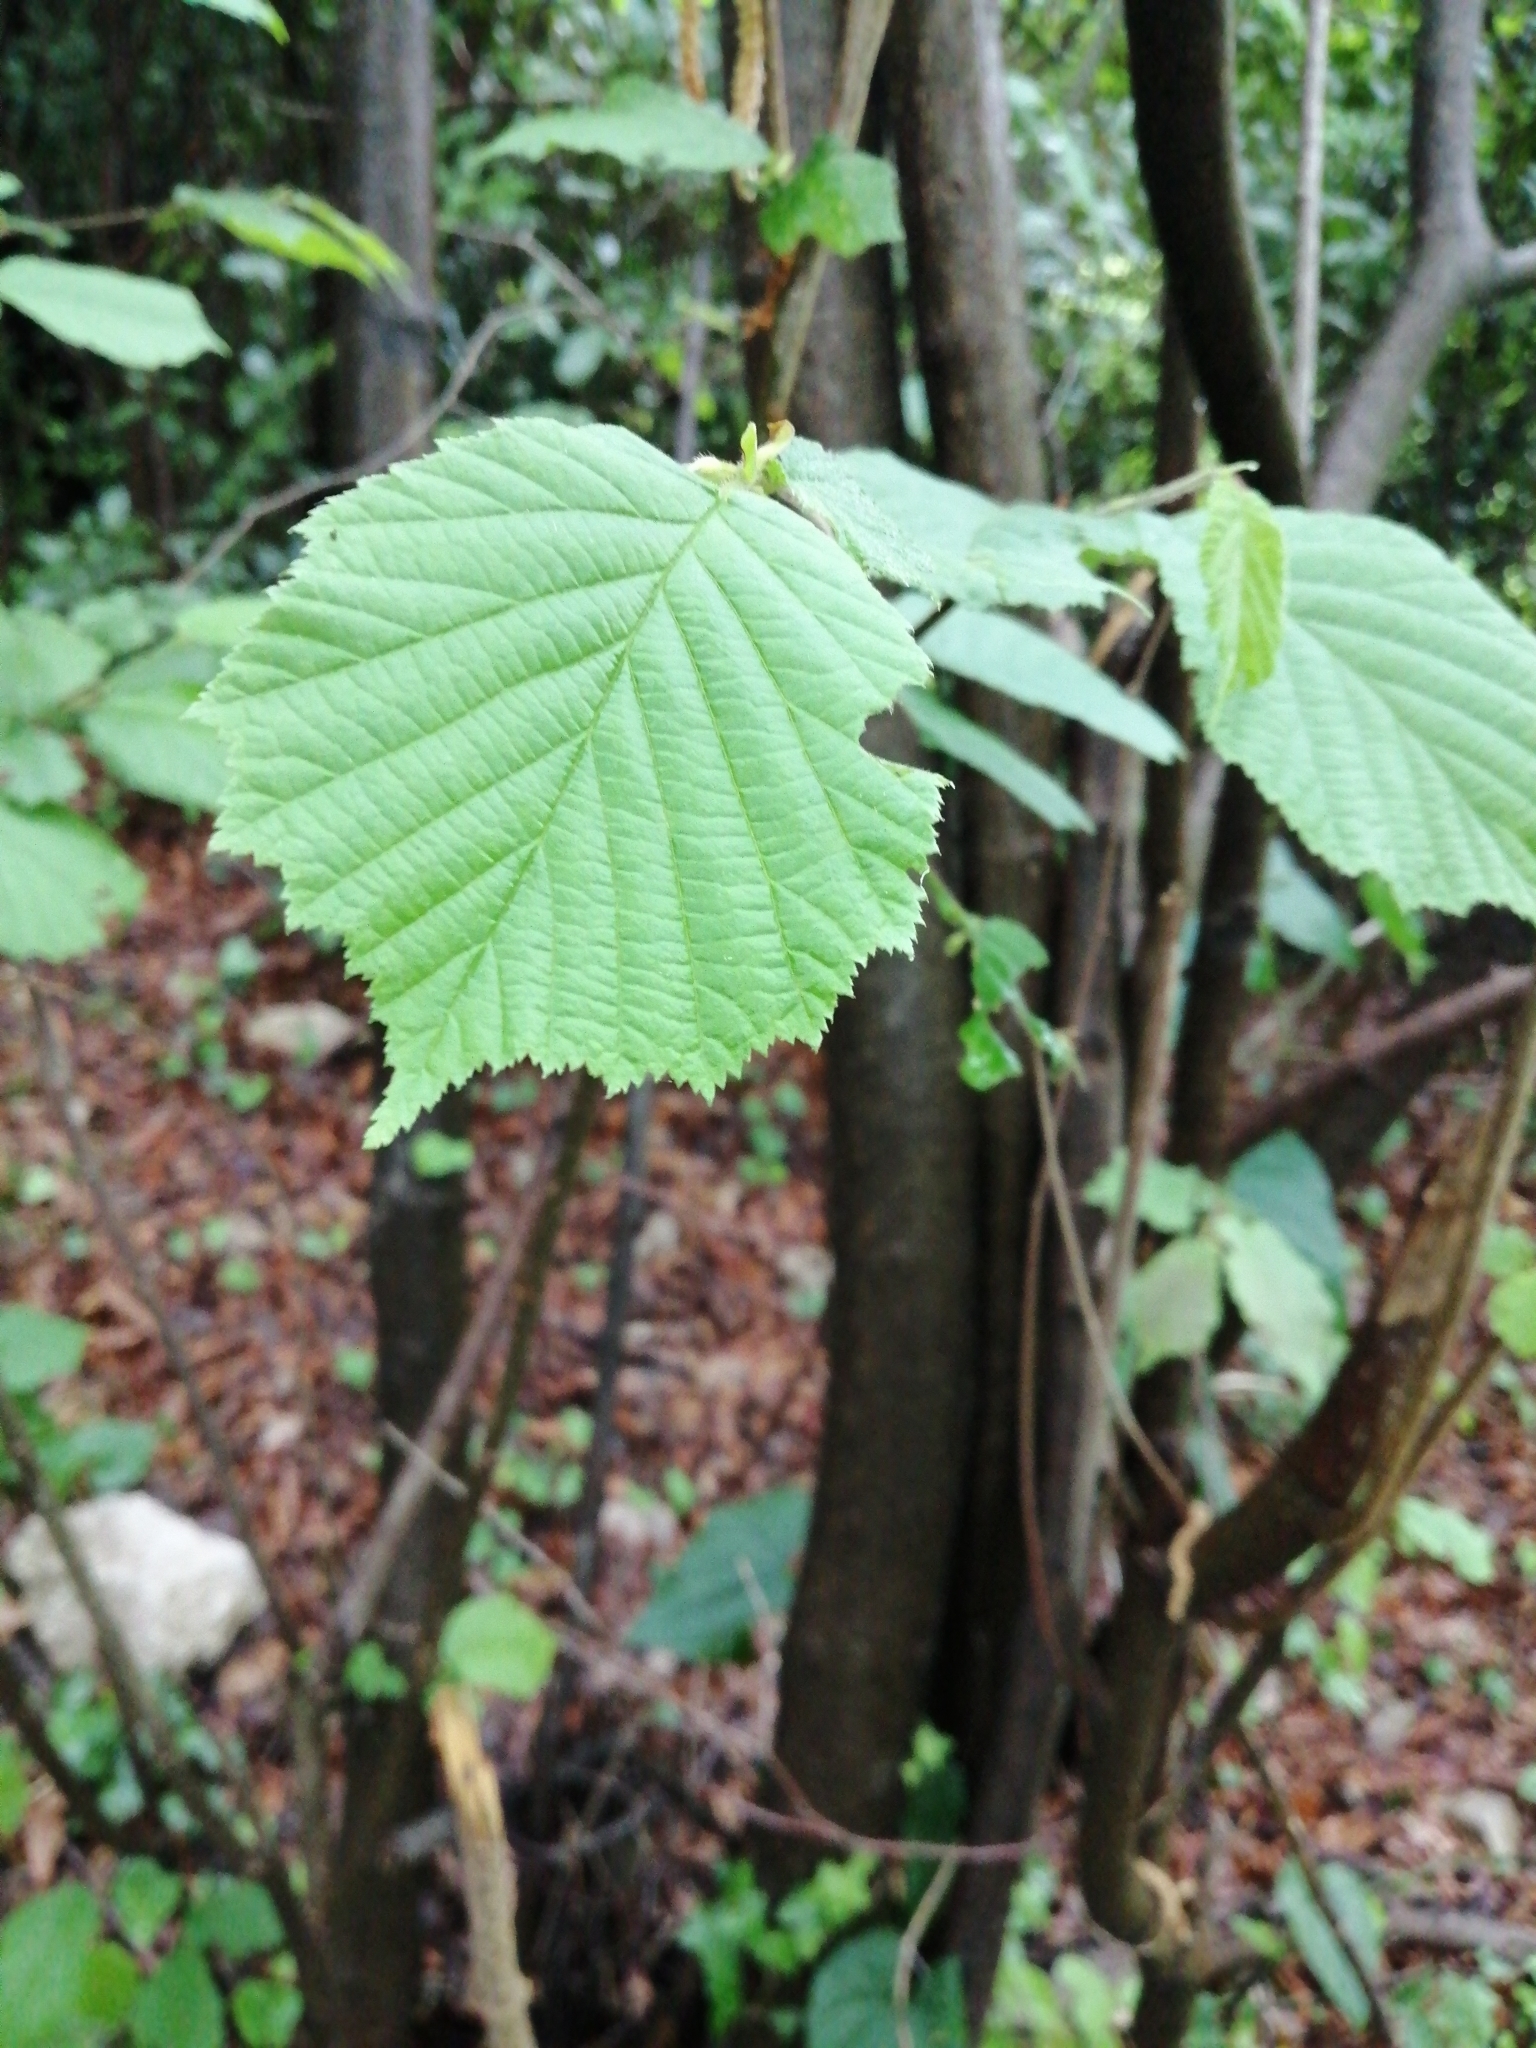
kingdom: Plantae
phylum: Tracheophyta
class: Magnoliopsida
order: Fagales
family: Betulaceae
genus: Corylus
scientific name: Corylus avellana
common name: European hazel
